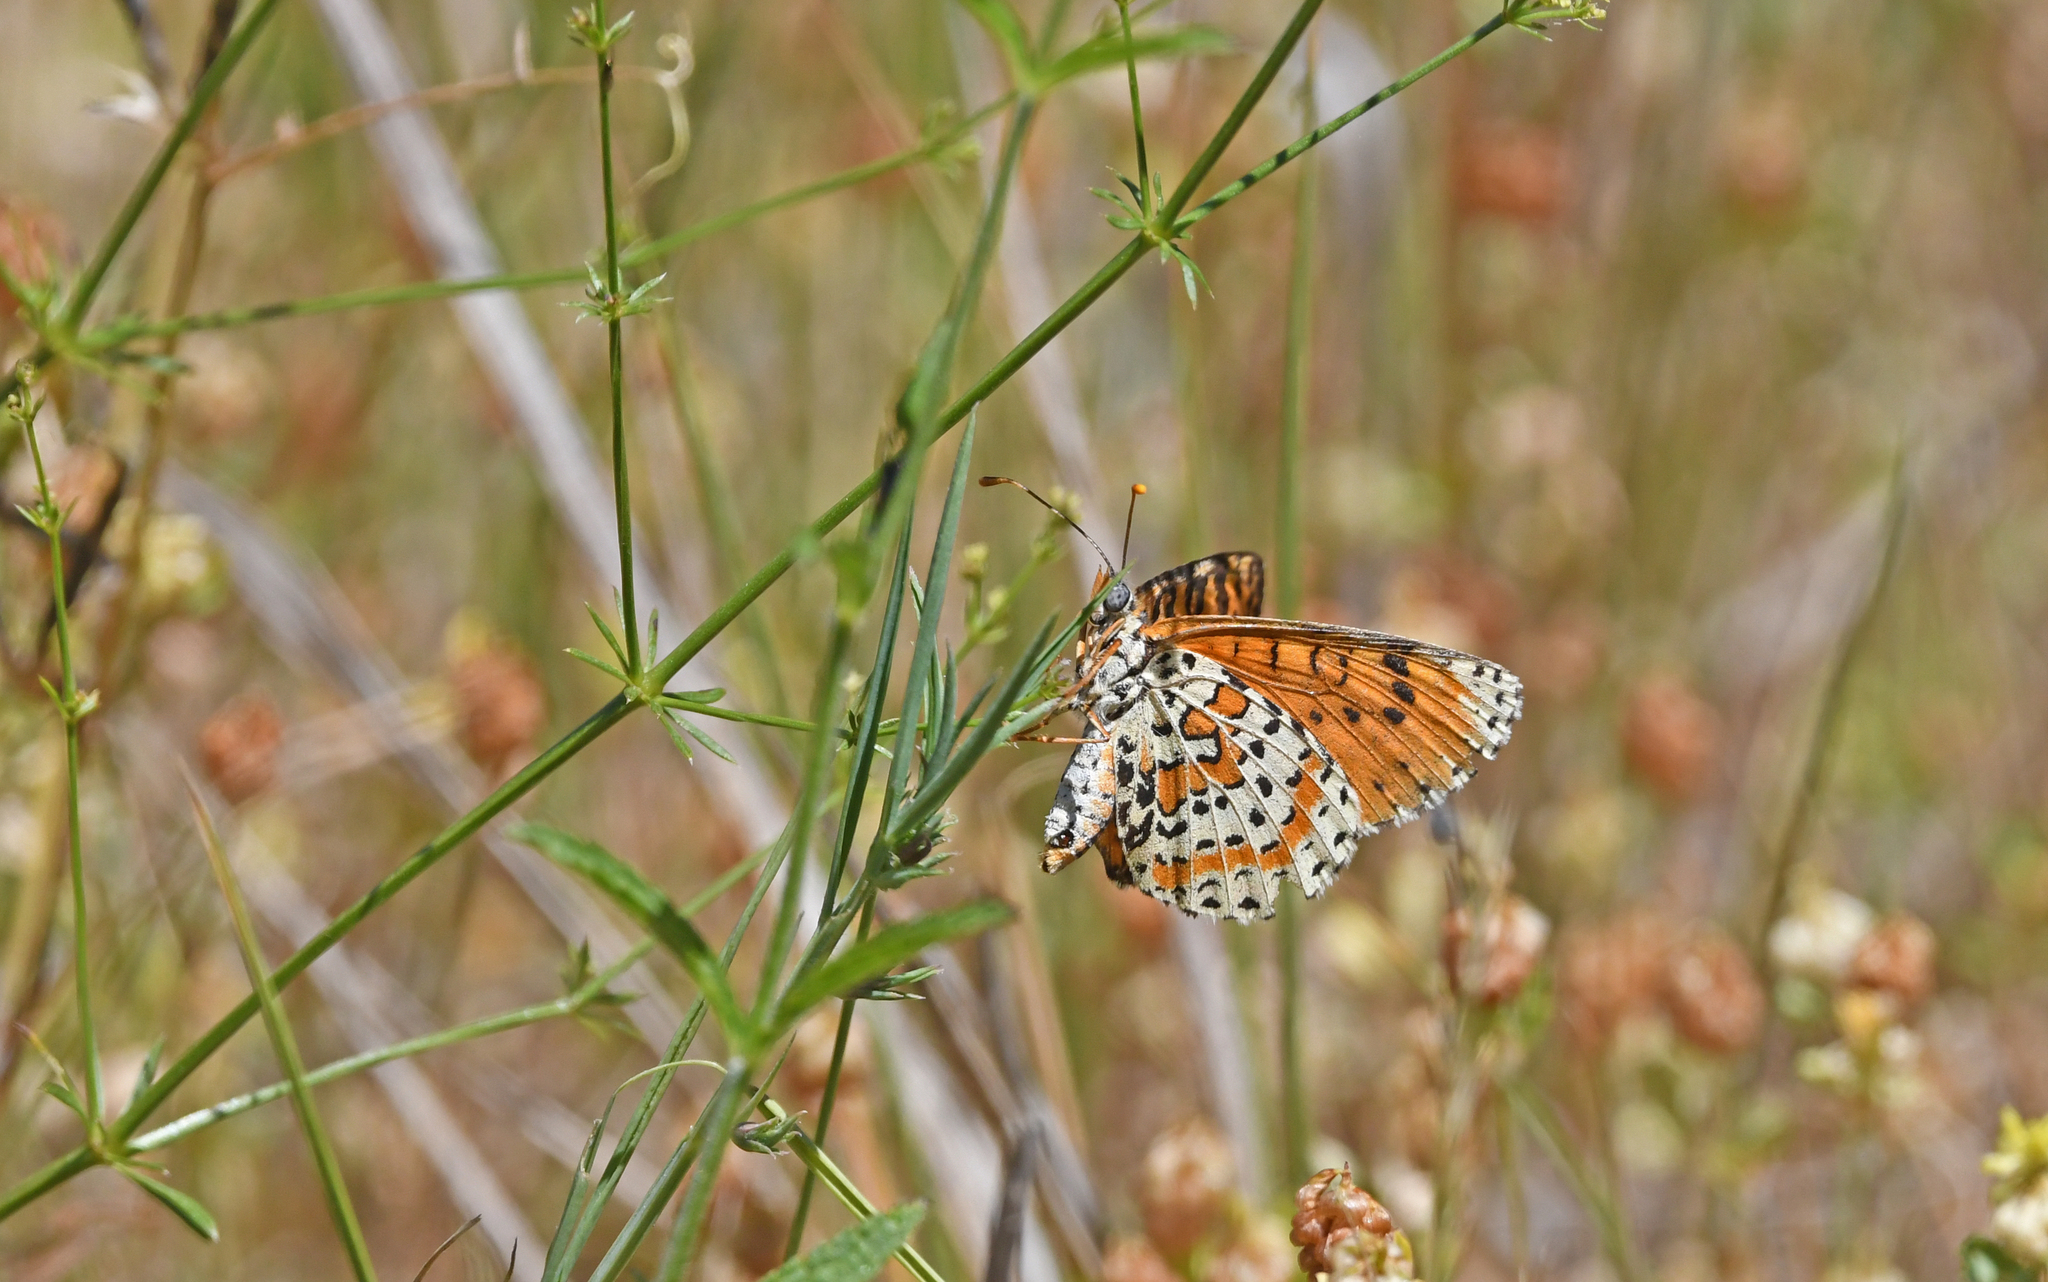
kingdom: Animalia
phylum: Arthropoda
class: Insecta
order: Lepidoptera
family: Nymphalidae
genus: Melitaea
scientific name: Melitaea didyma
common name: Spotted fritillary
